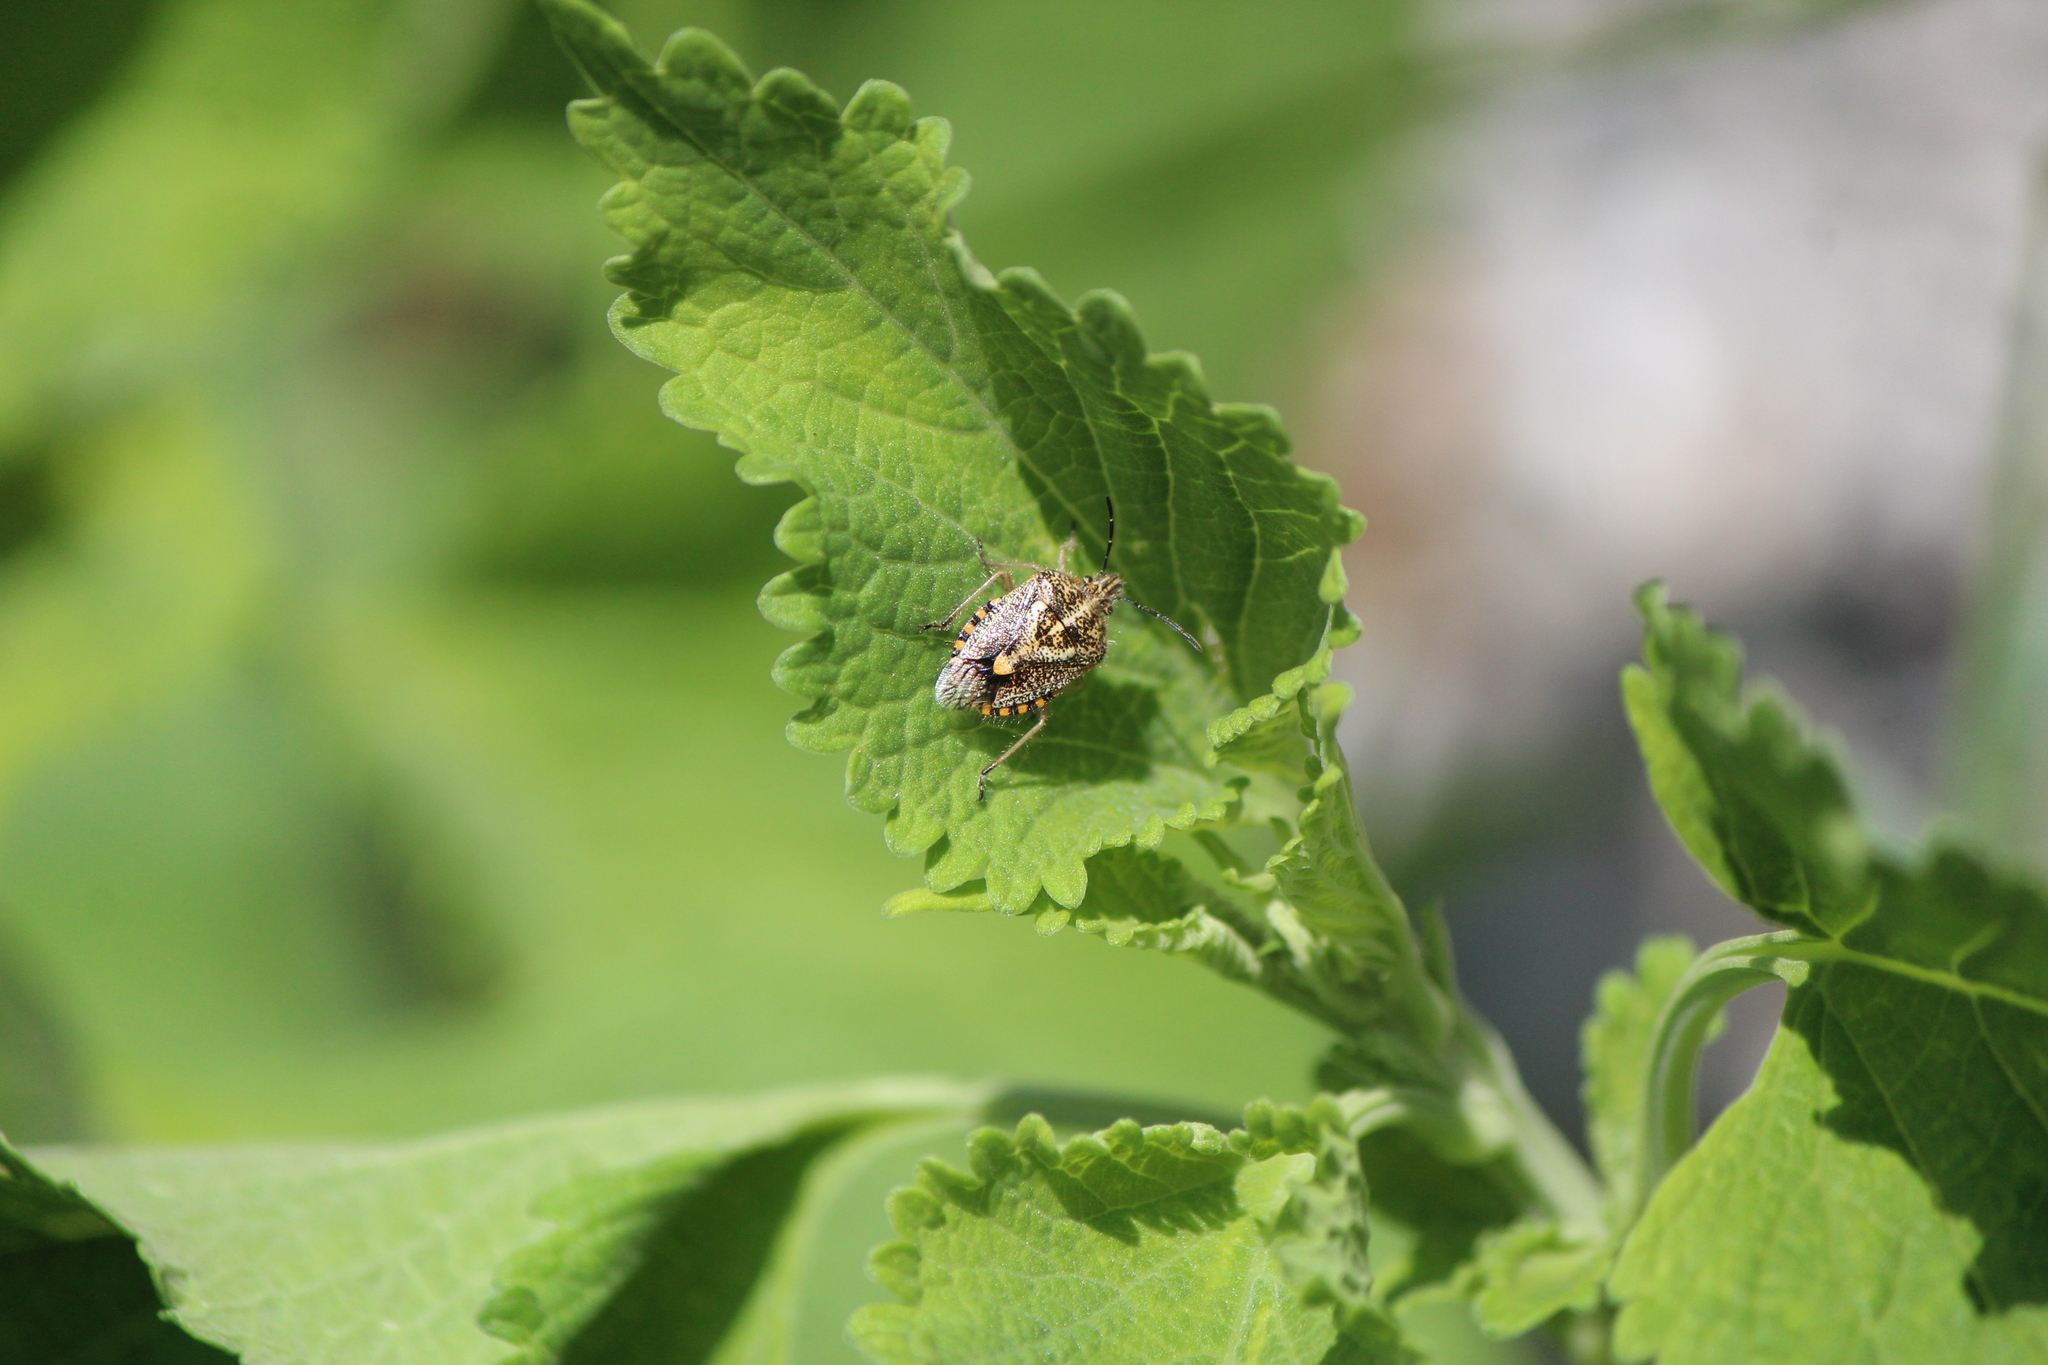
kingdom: Animalia
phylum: Arthropoda
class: Insecta
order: Hemiptera
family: Pentatomidae
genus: Agonoscelis
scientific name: Agonoscelis puberula
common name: African cluster bug
